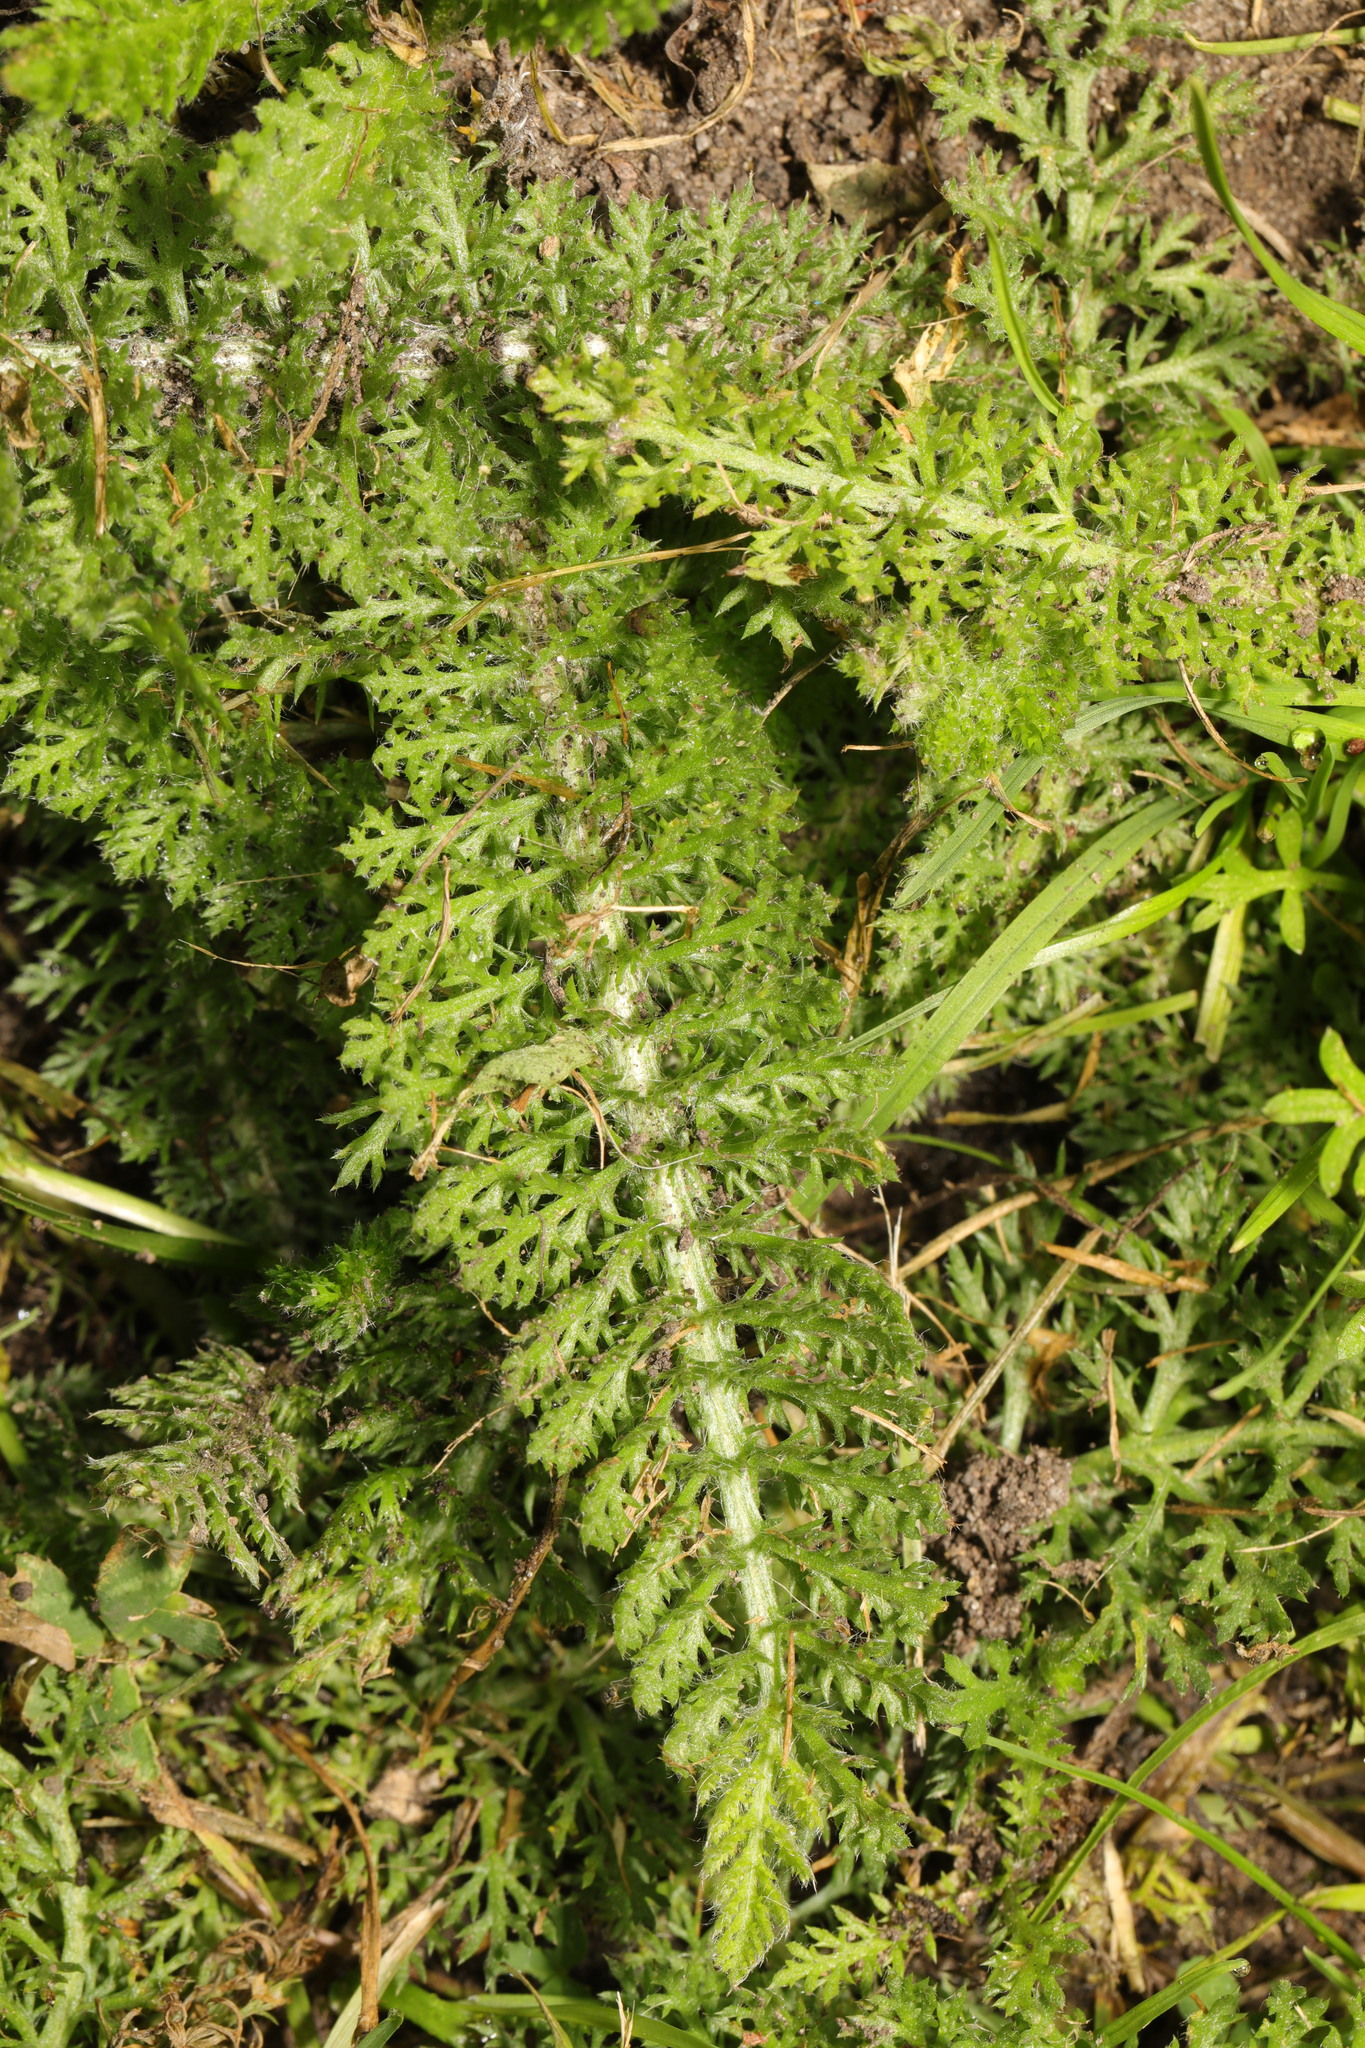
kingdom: Plantae
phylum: Tracheophyta
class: Magnoliopsida
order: Asterales
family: Asteraceae
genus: Achillea
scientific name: Achillea millefolium
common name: Yarrow
